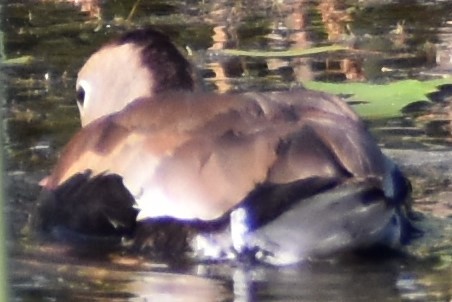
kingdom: Animalia
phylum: Chordata
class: Aves
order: Anseriformes
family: Anatidae
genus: Dendrocygna
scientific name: Dendrocygna autumnalis
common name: Black-bellied whistling duck
